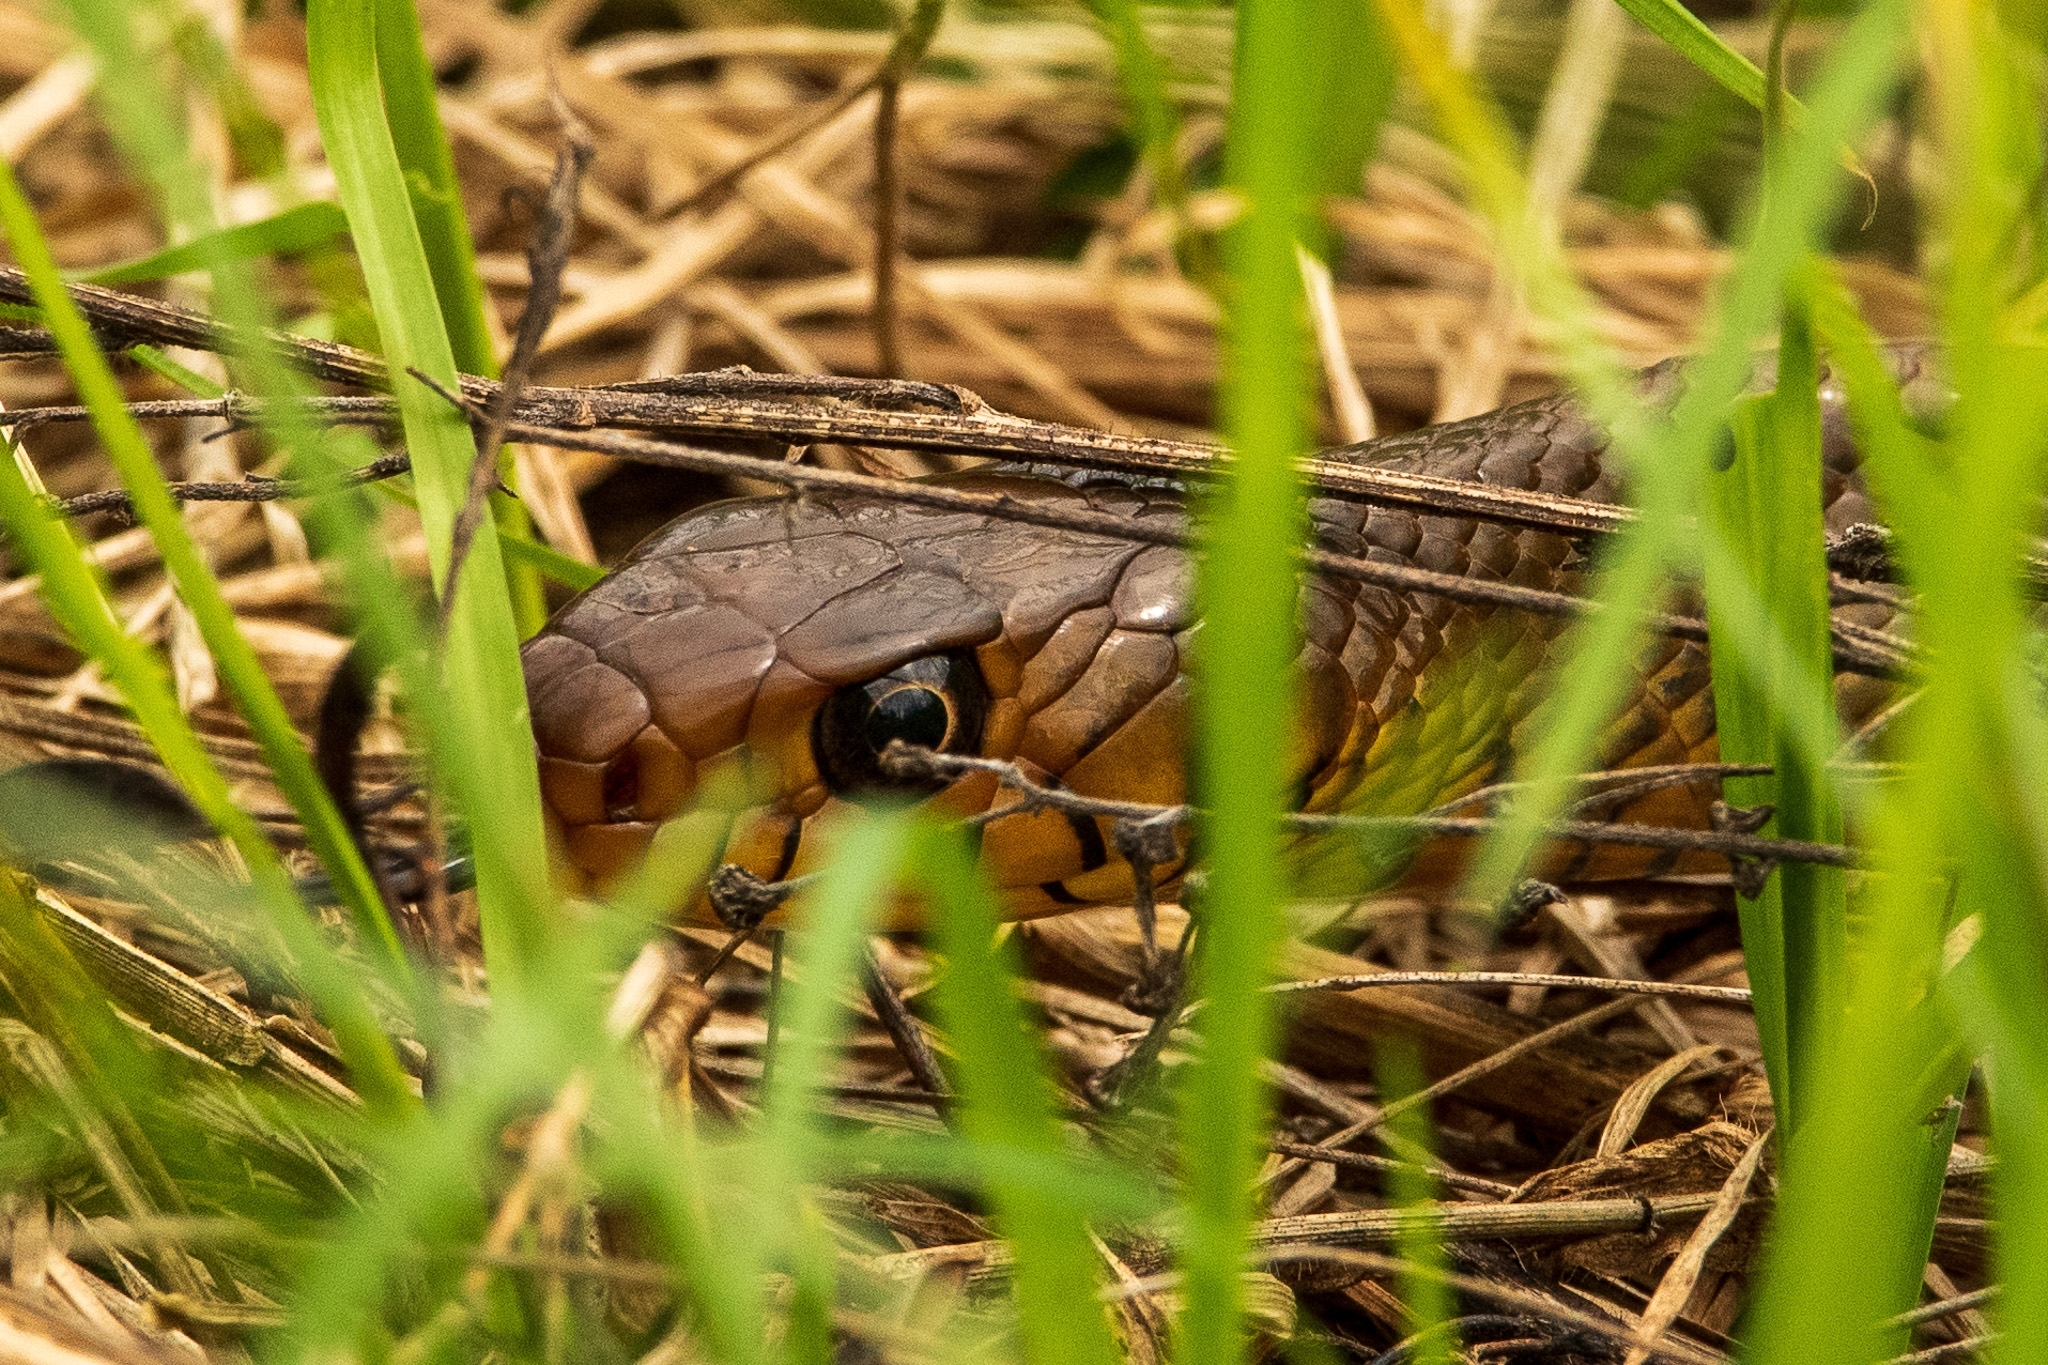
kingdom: Animalia
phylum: Chordata
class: Squamata
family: Colubridae
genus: Ptyas
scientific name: Ptyas mucosa
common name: Oriental ratsnake
